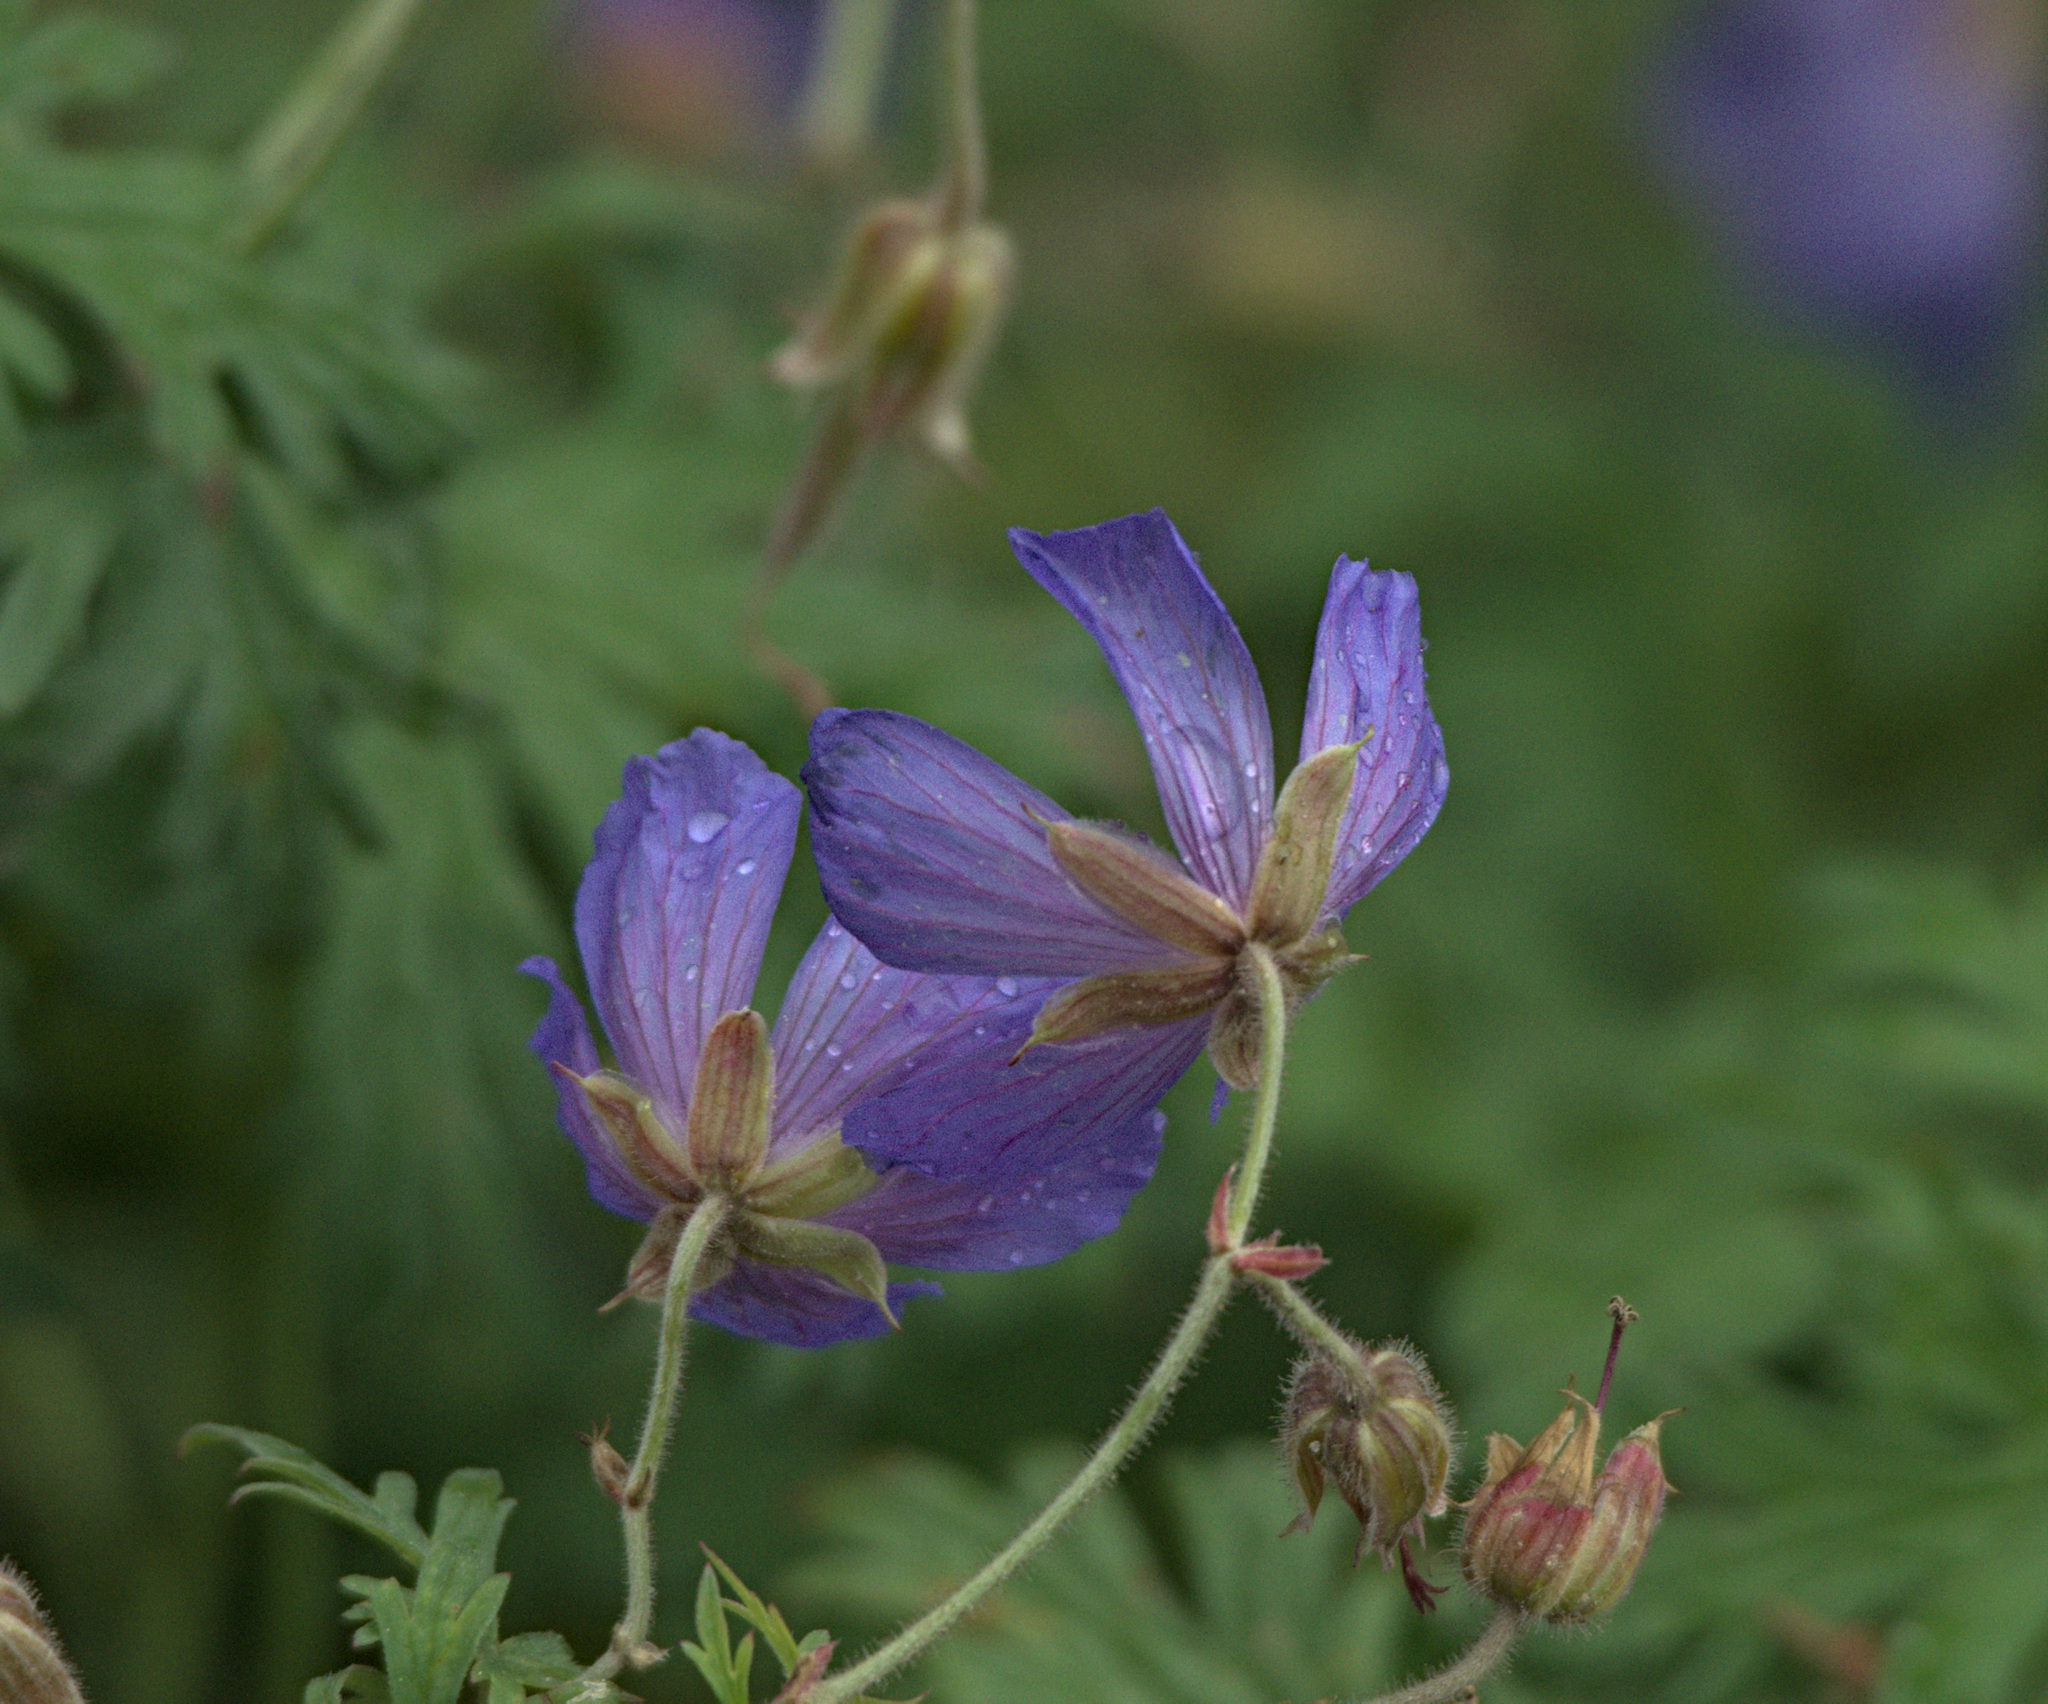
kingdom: Plantae
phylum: Tracheophyta
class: Magnoliopsida
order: Geraniales
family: Geraniaceae
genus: Geranium
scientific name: Geranium pratense
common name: Meadow crane's-bill
